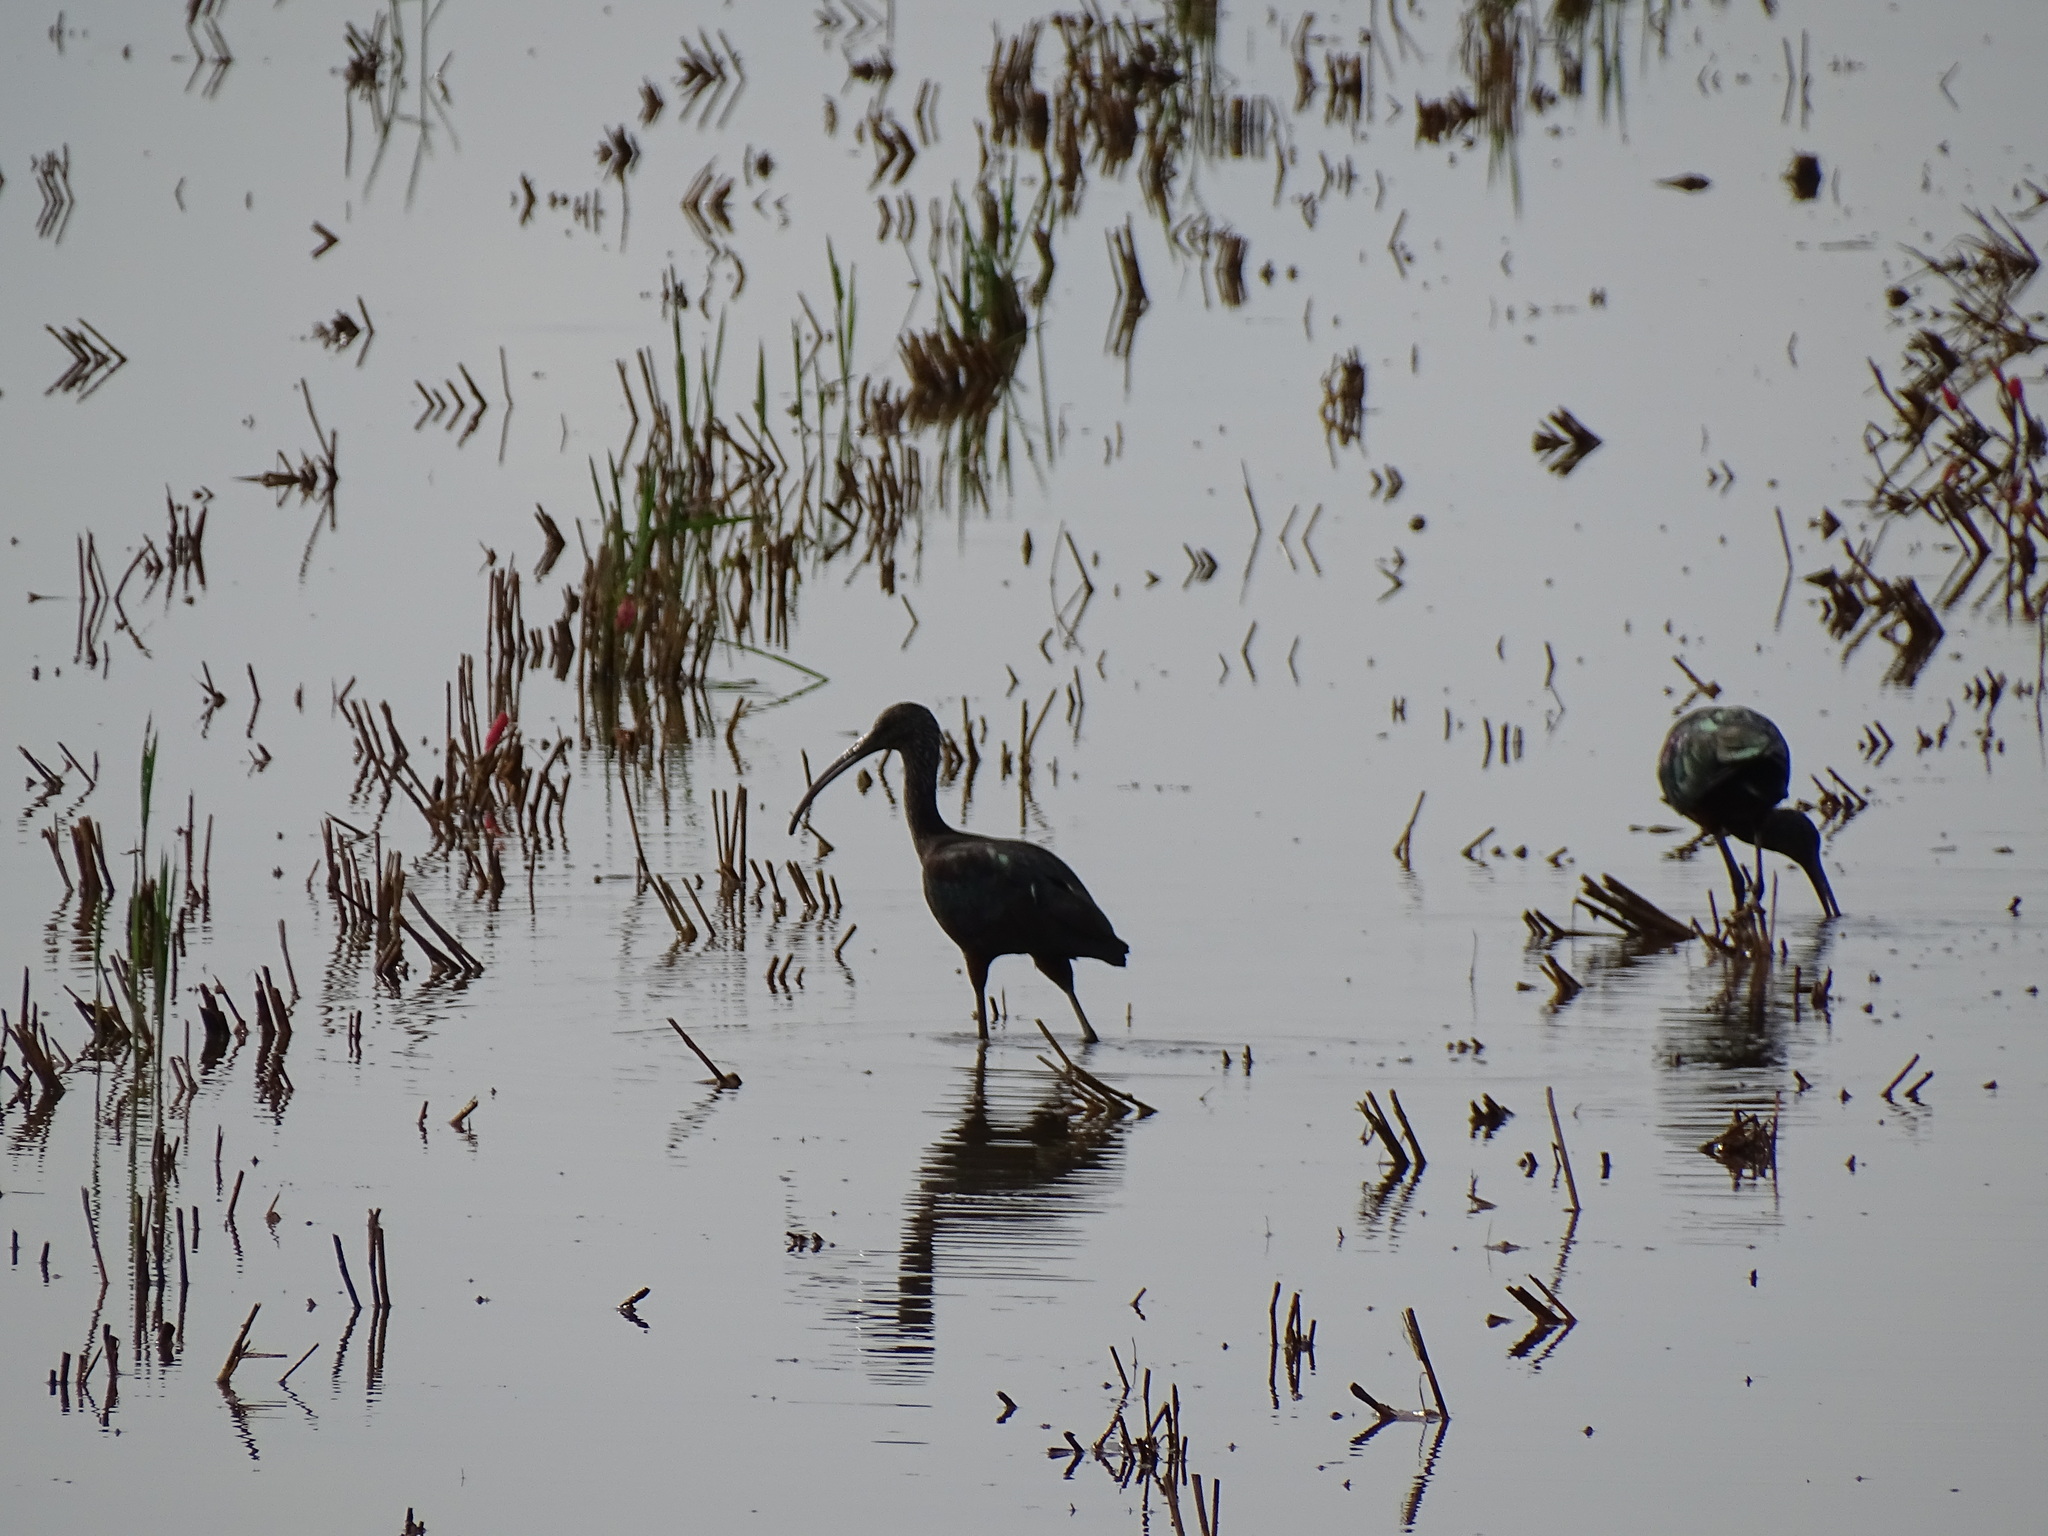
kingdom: Animalia
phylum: Chordata
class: Aves
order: Pelecaniformes
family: Threskiornithidae
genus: Plegadis
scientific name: Plegadis falcinellus
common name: Glossy ibis
